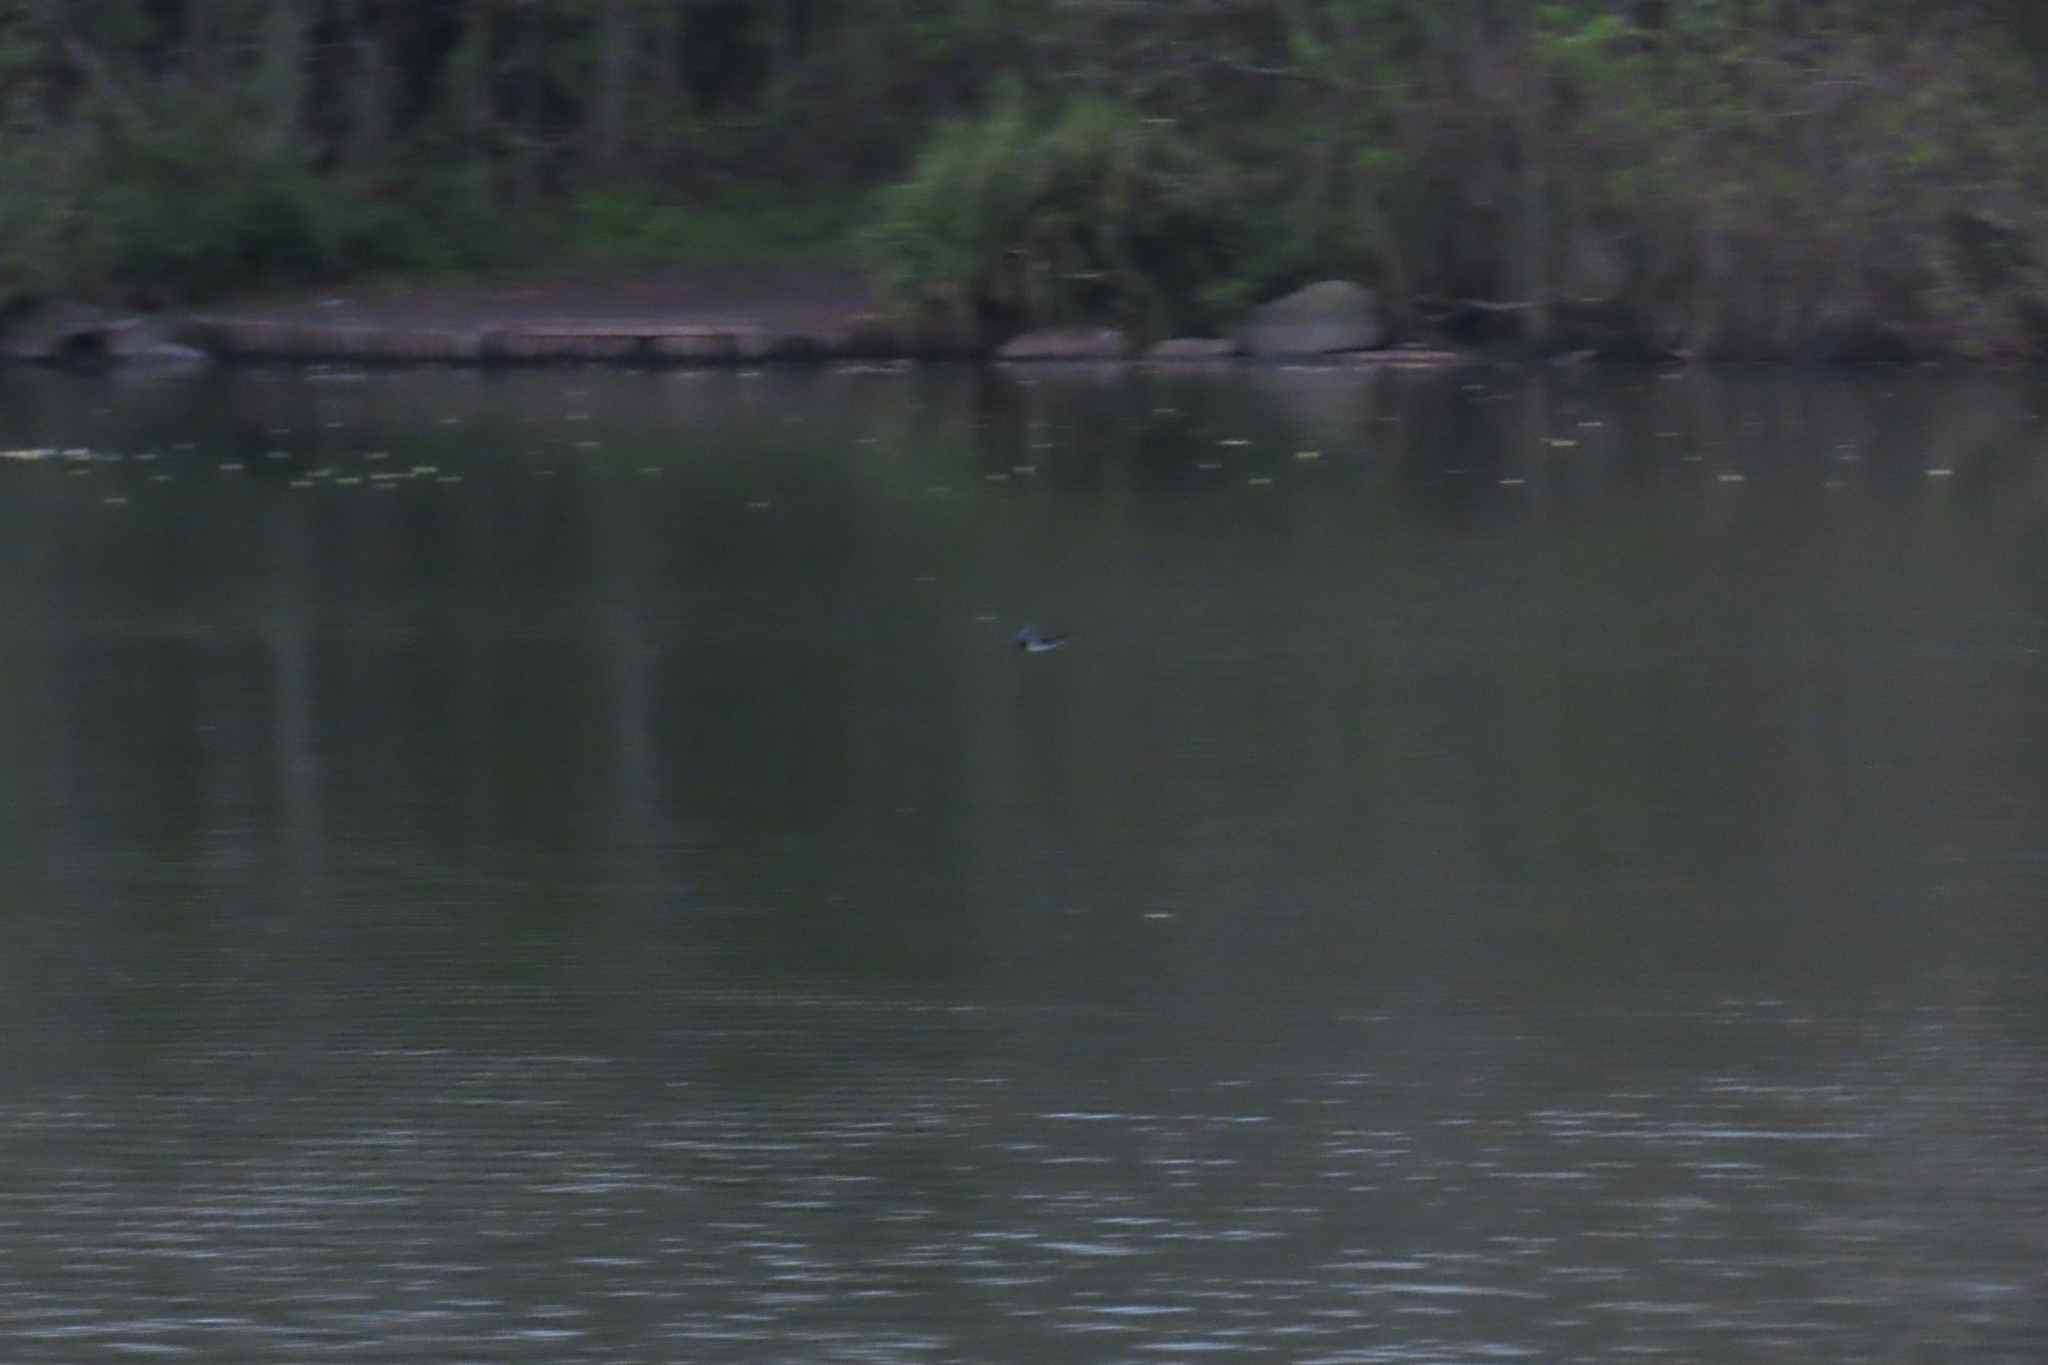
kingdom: Animalia
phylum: Chordata
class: Aves
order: Passeriformes
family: Hirundinidae
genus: Hirundo
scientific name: Hirundo rustica
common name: Barn swallow
